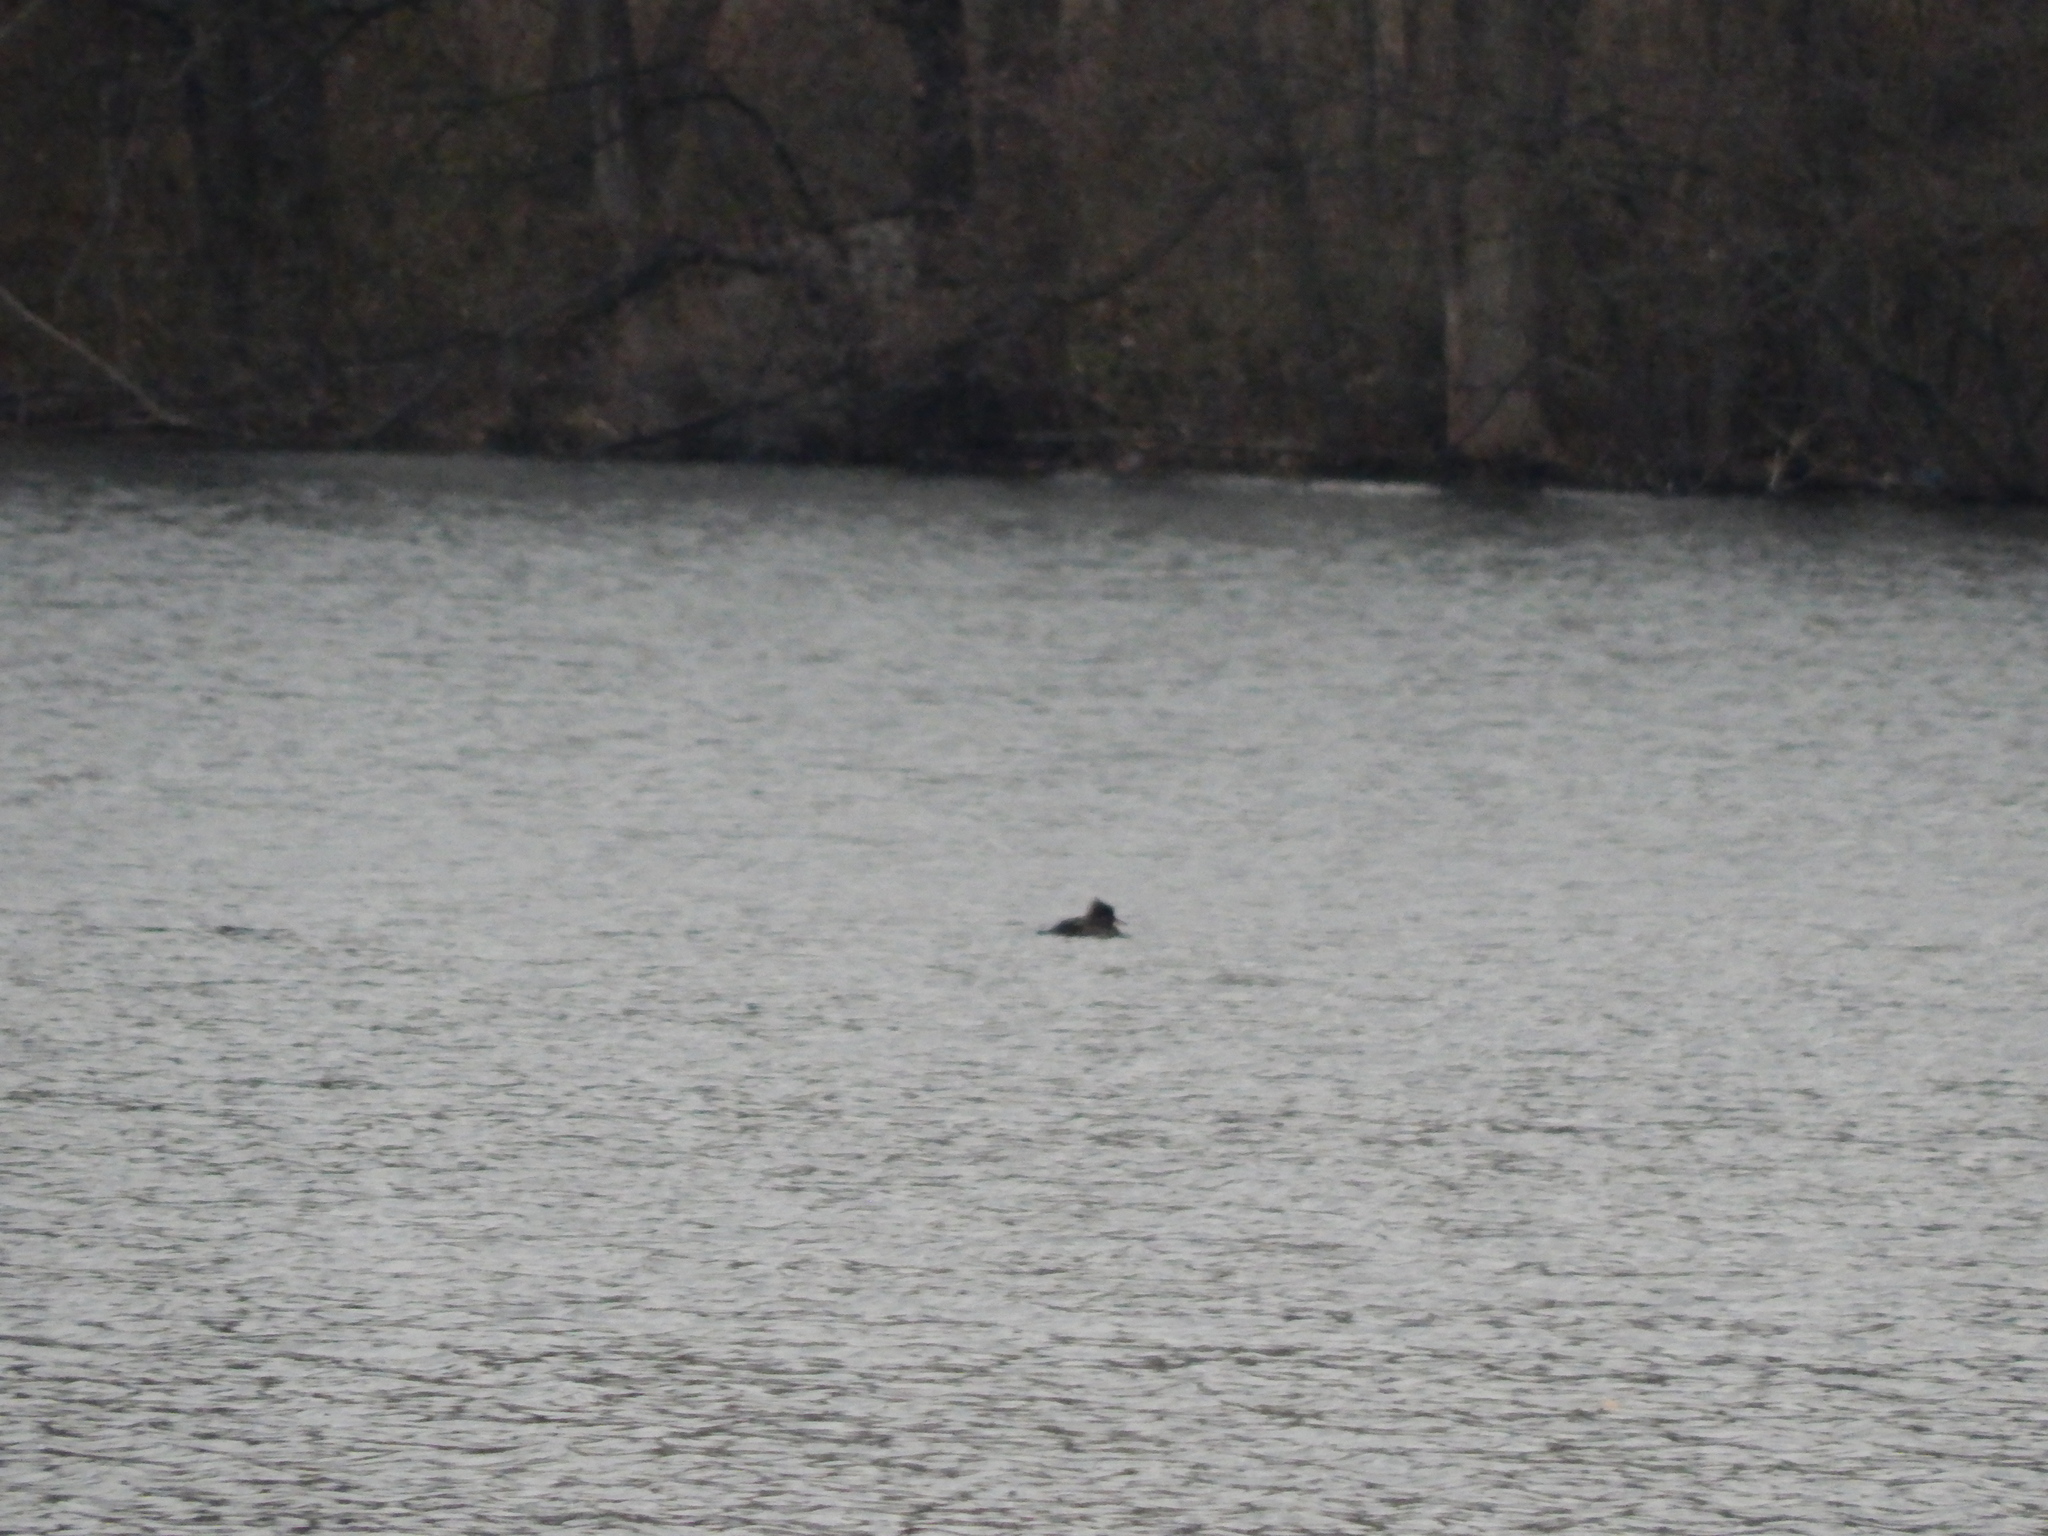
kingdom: Animalia
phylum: Chordata
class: Aves
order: Anseriformes
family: Anatidae
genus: Lophodytes
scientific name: Lophodytes cucullatus
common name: Hooded merganser
